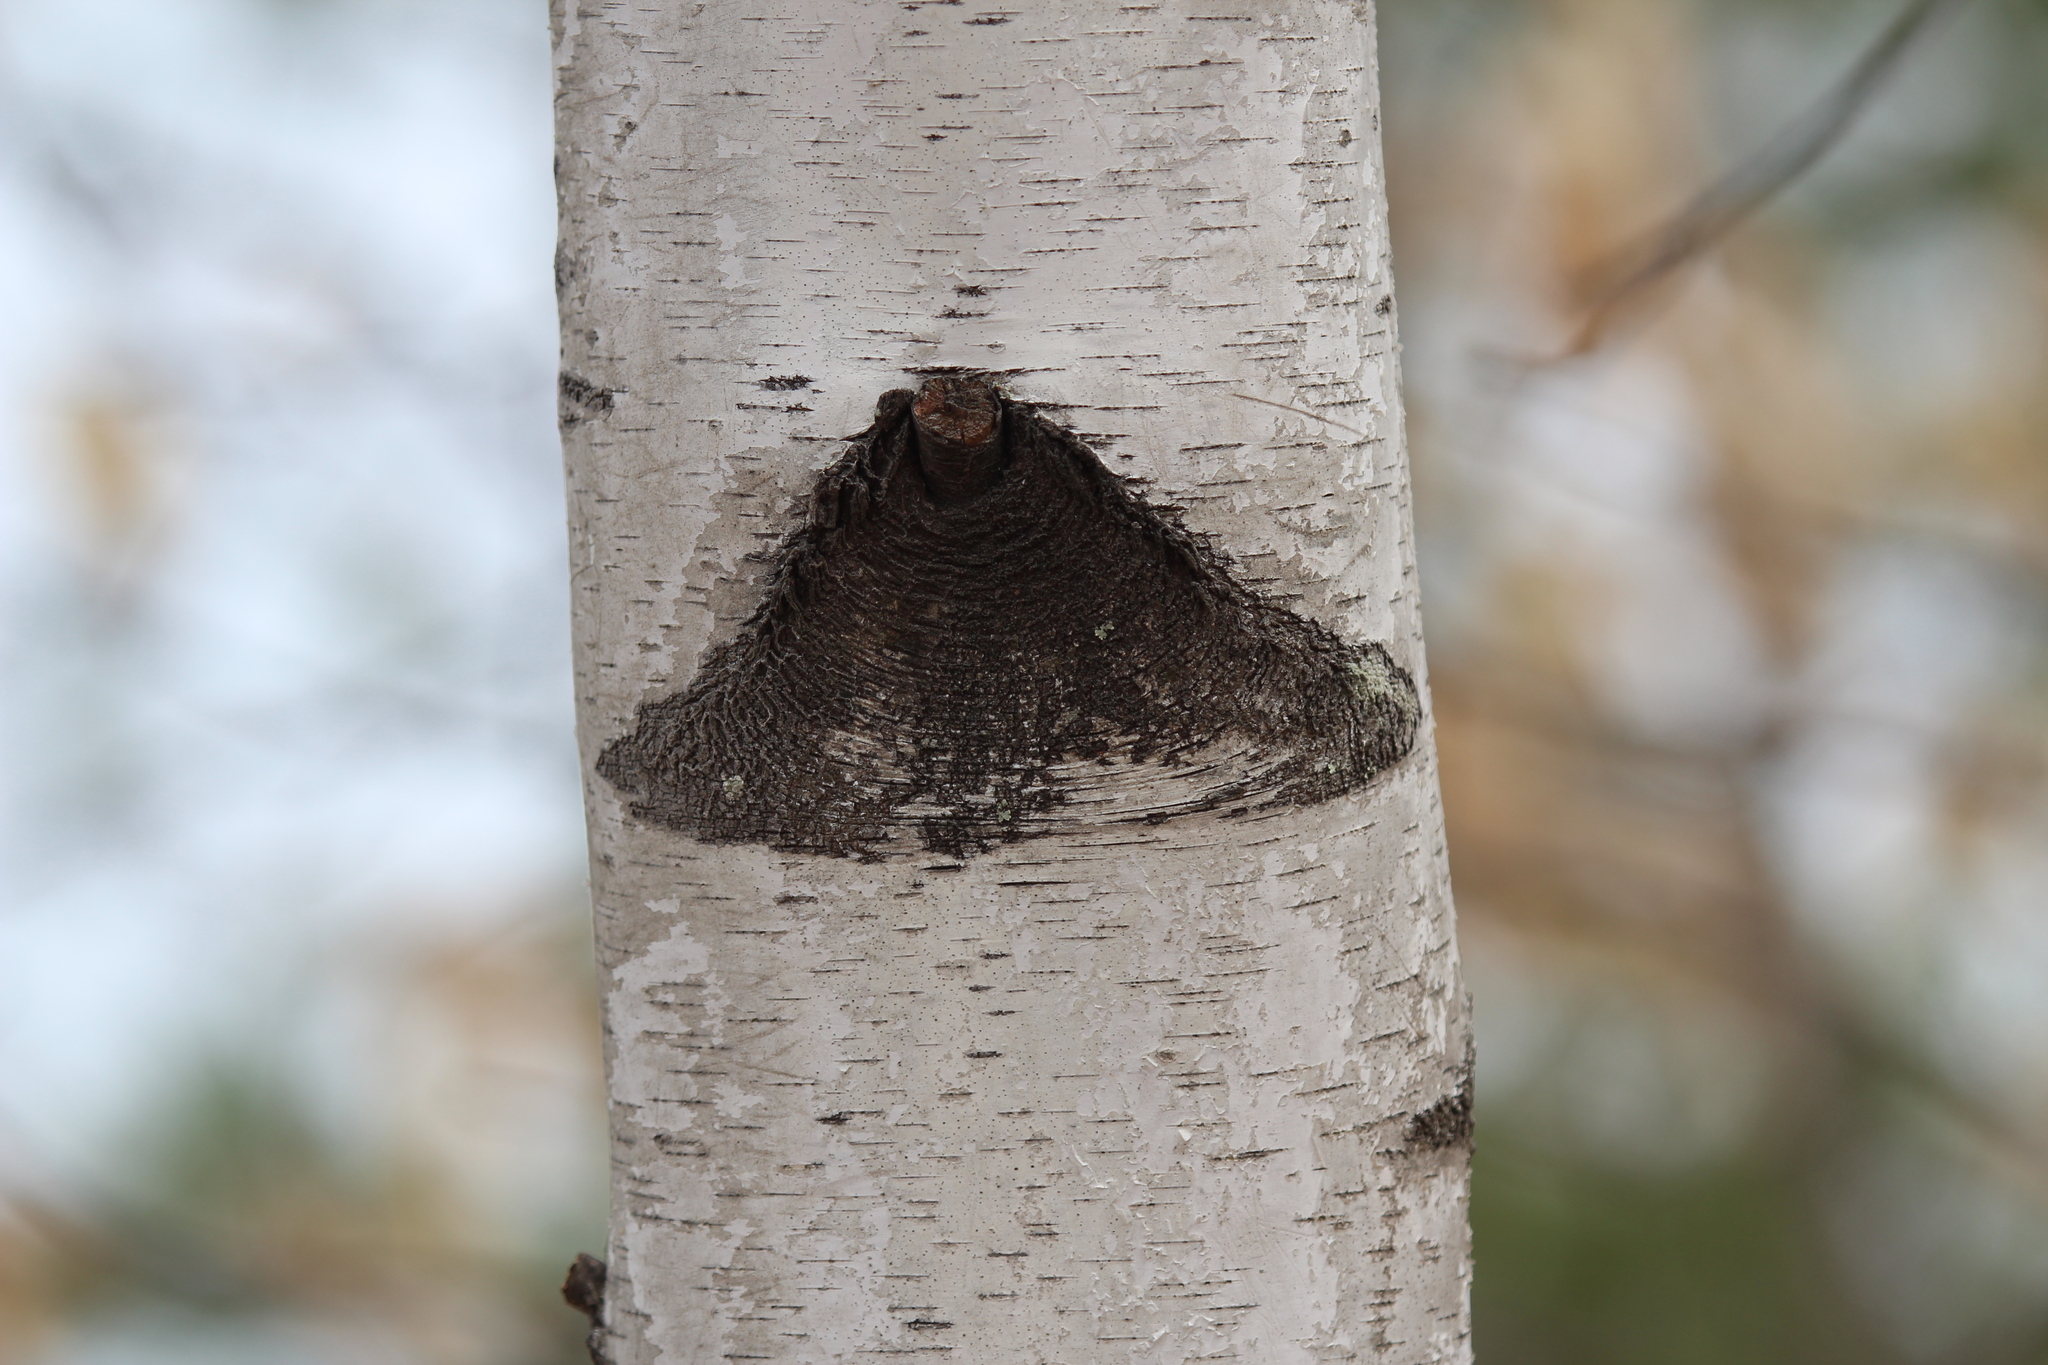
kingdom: Plantae
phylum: Tracheophyta
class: Magnoliopsida
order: Fagales
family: Betulaceae
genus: Betula
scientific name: Betula populifolia
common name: Fire birch
